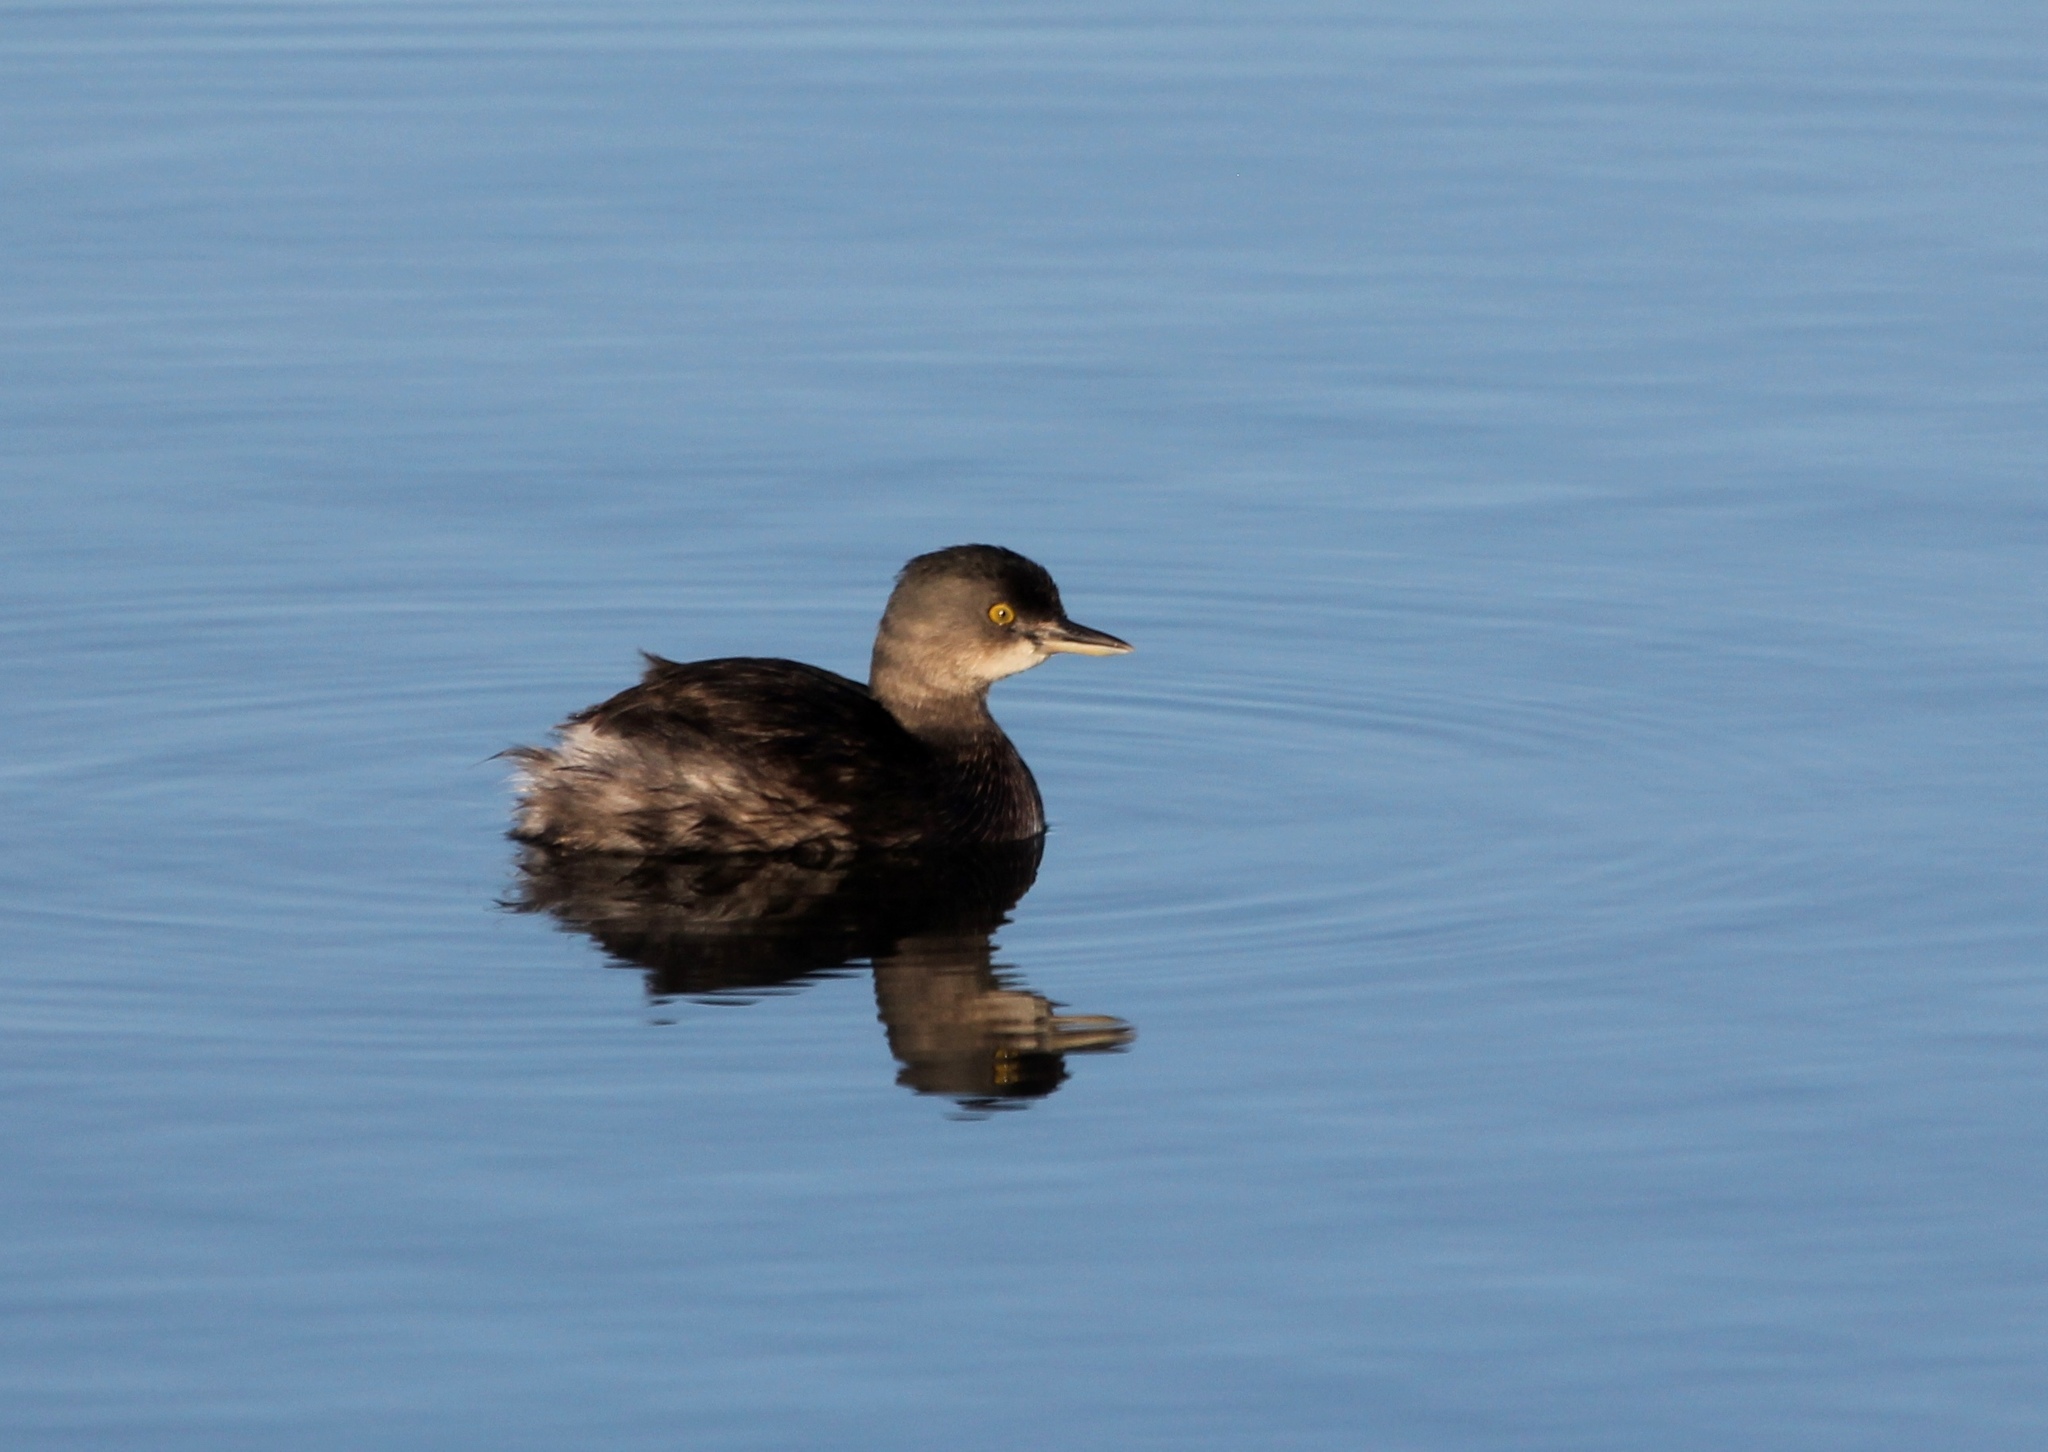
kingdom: Animalia
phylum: Chordata
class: Aves
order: Podicipediformes
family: Podicipedidae
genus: Tachybaptus
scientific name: Tachybaptus dominicus
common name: Least grebe
